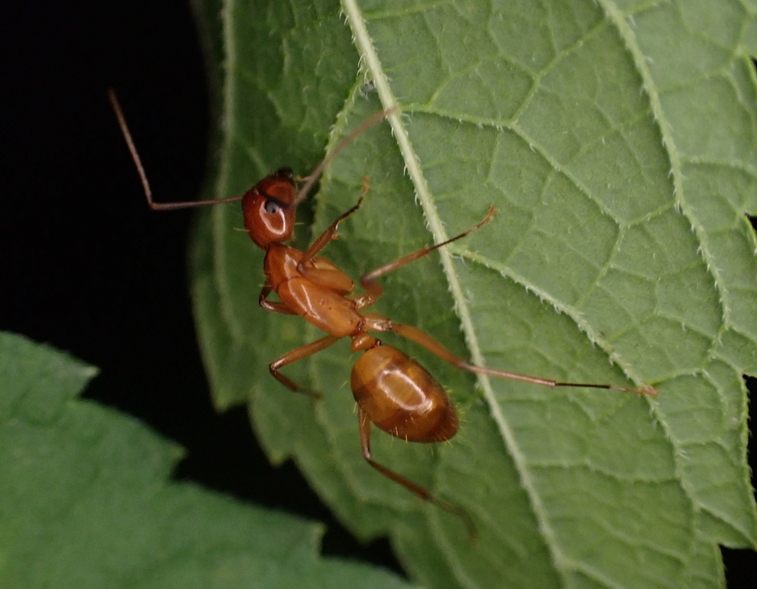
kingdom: Animalia
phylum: Arthropoda
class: Insecta
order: Hymenoptera
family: Formicidae
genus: Camponotus
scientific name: Camponotus castaneus
